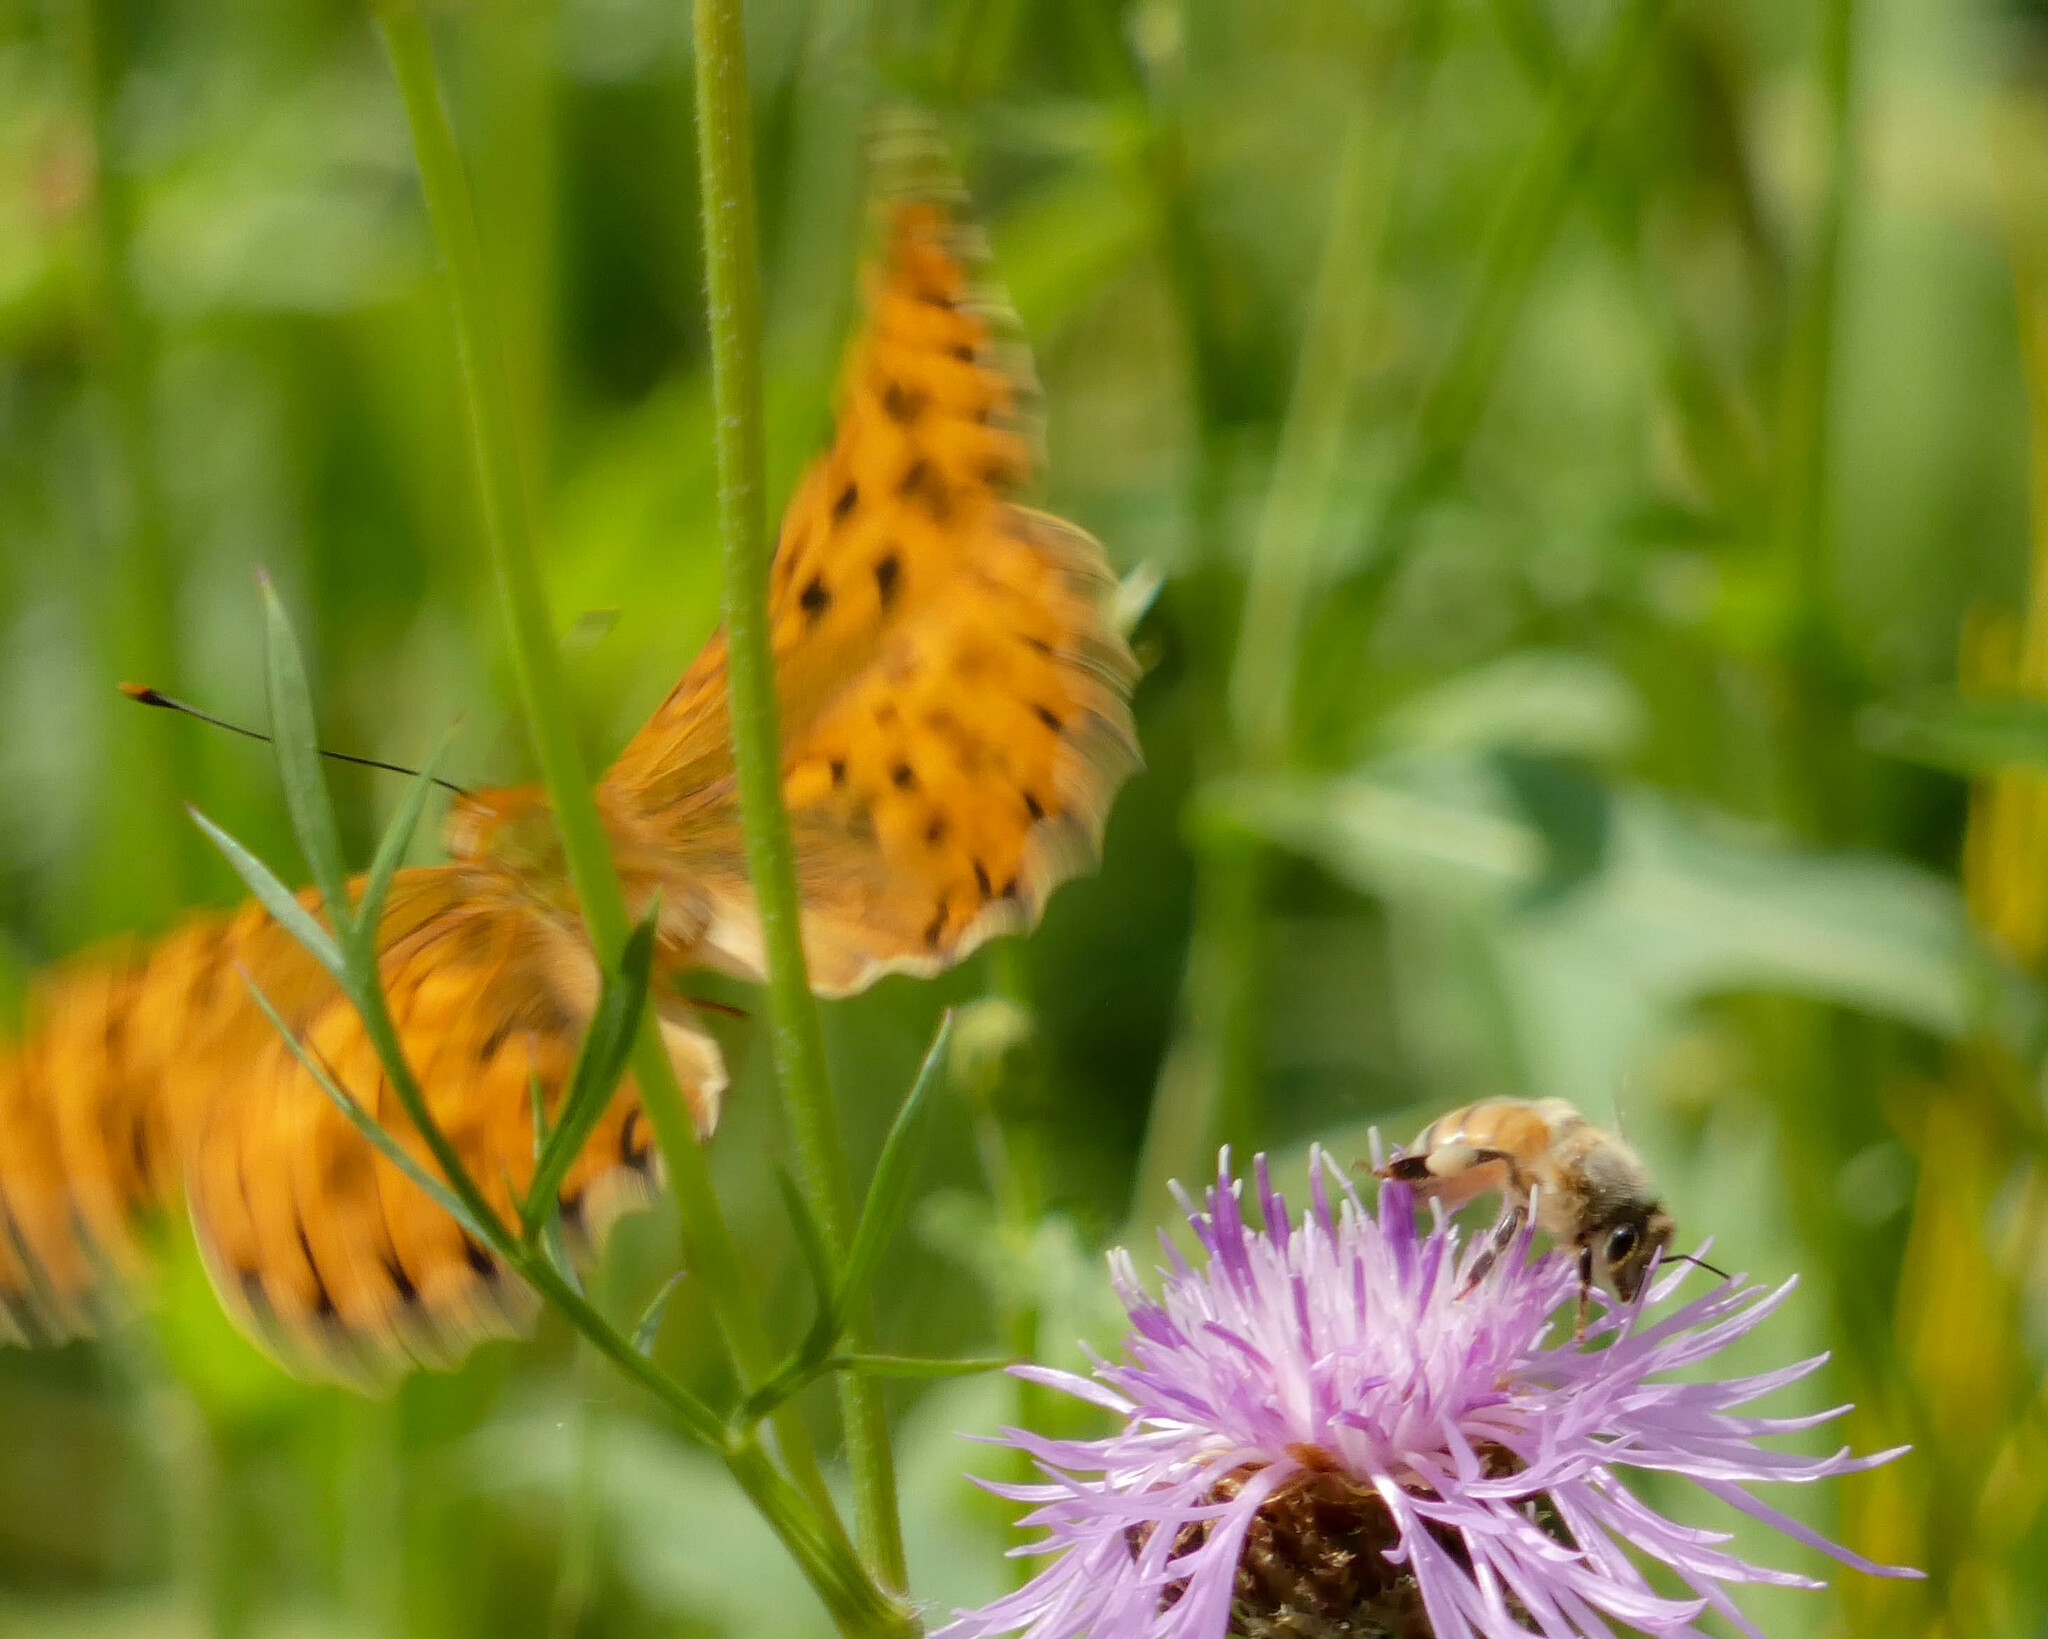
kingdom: Animalia
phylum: Arthropoda
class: Insecta
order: Lepidoptera
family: Nymphalidae
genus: Fabriciana
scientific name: Fabriciana adippe
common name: High brown fritillary
